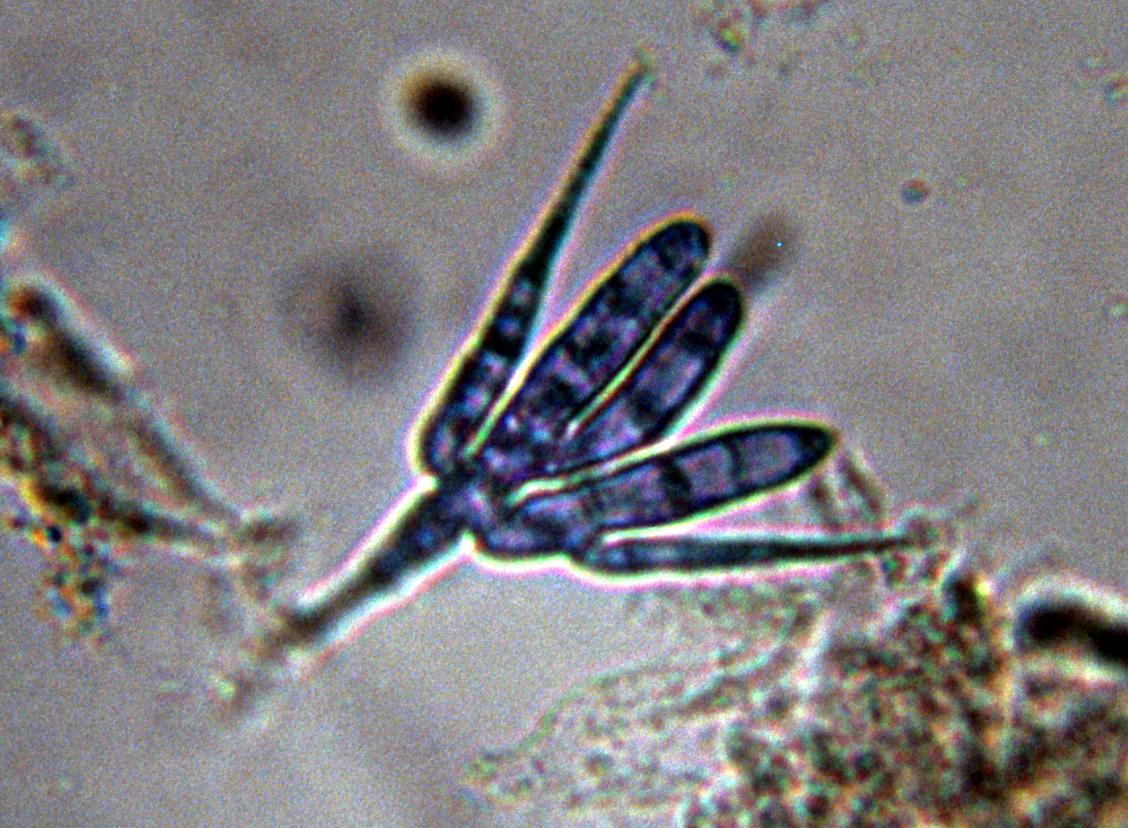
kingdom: Fungi
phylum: Ascomycota
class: Leotiomycetes
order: Helotiales
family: Helotiaceae
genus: Tetracladium
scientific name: Tetracladium setigerum
